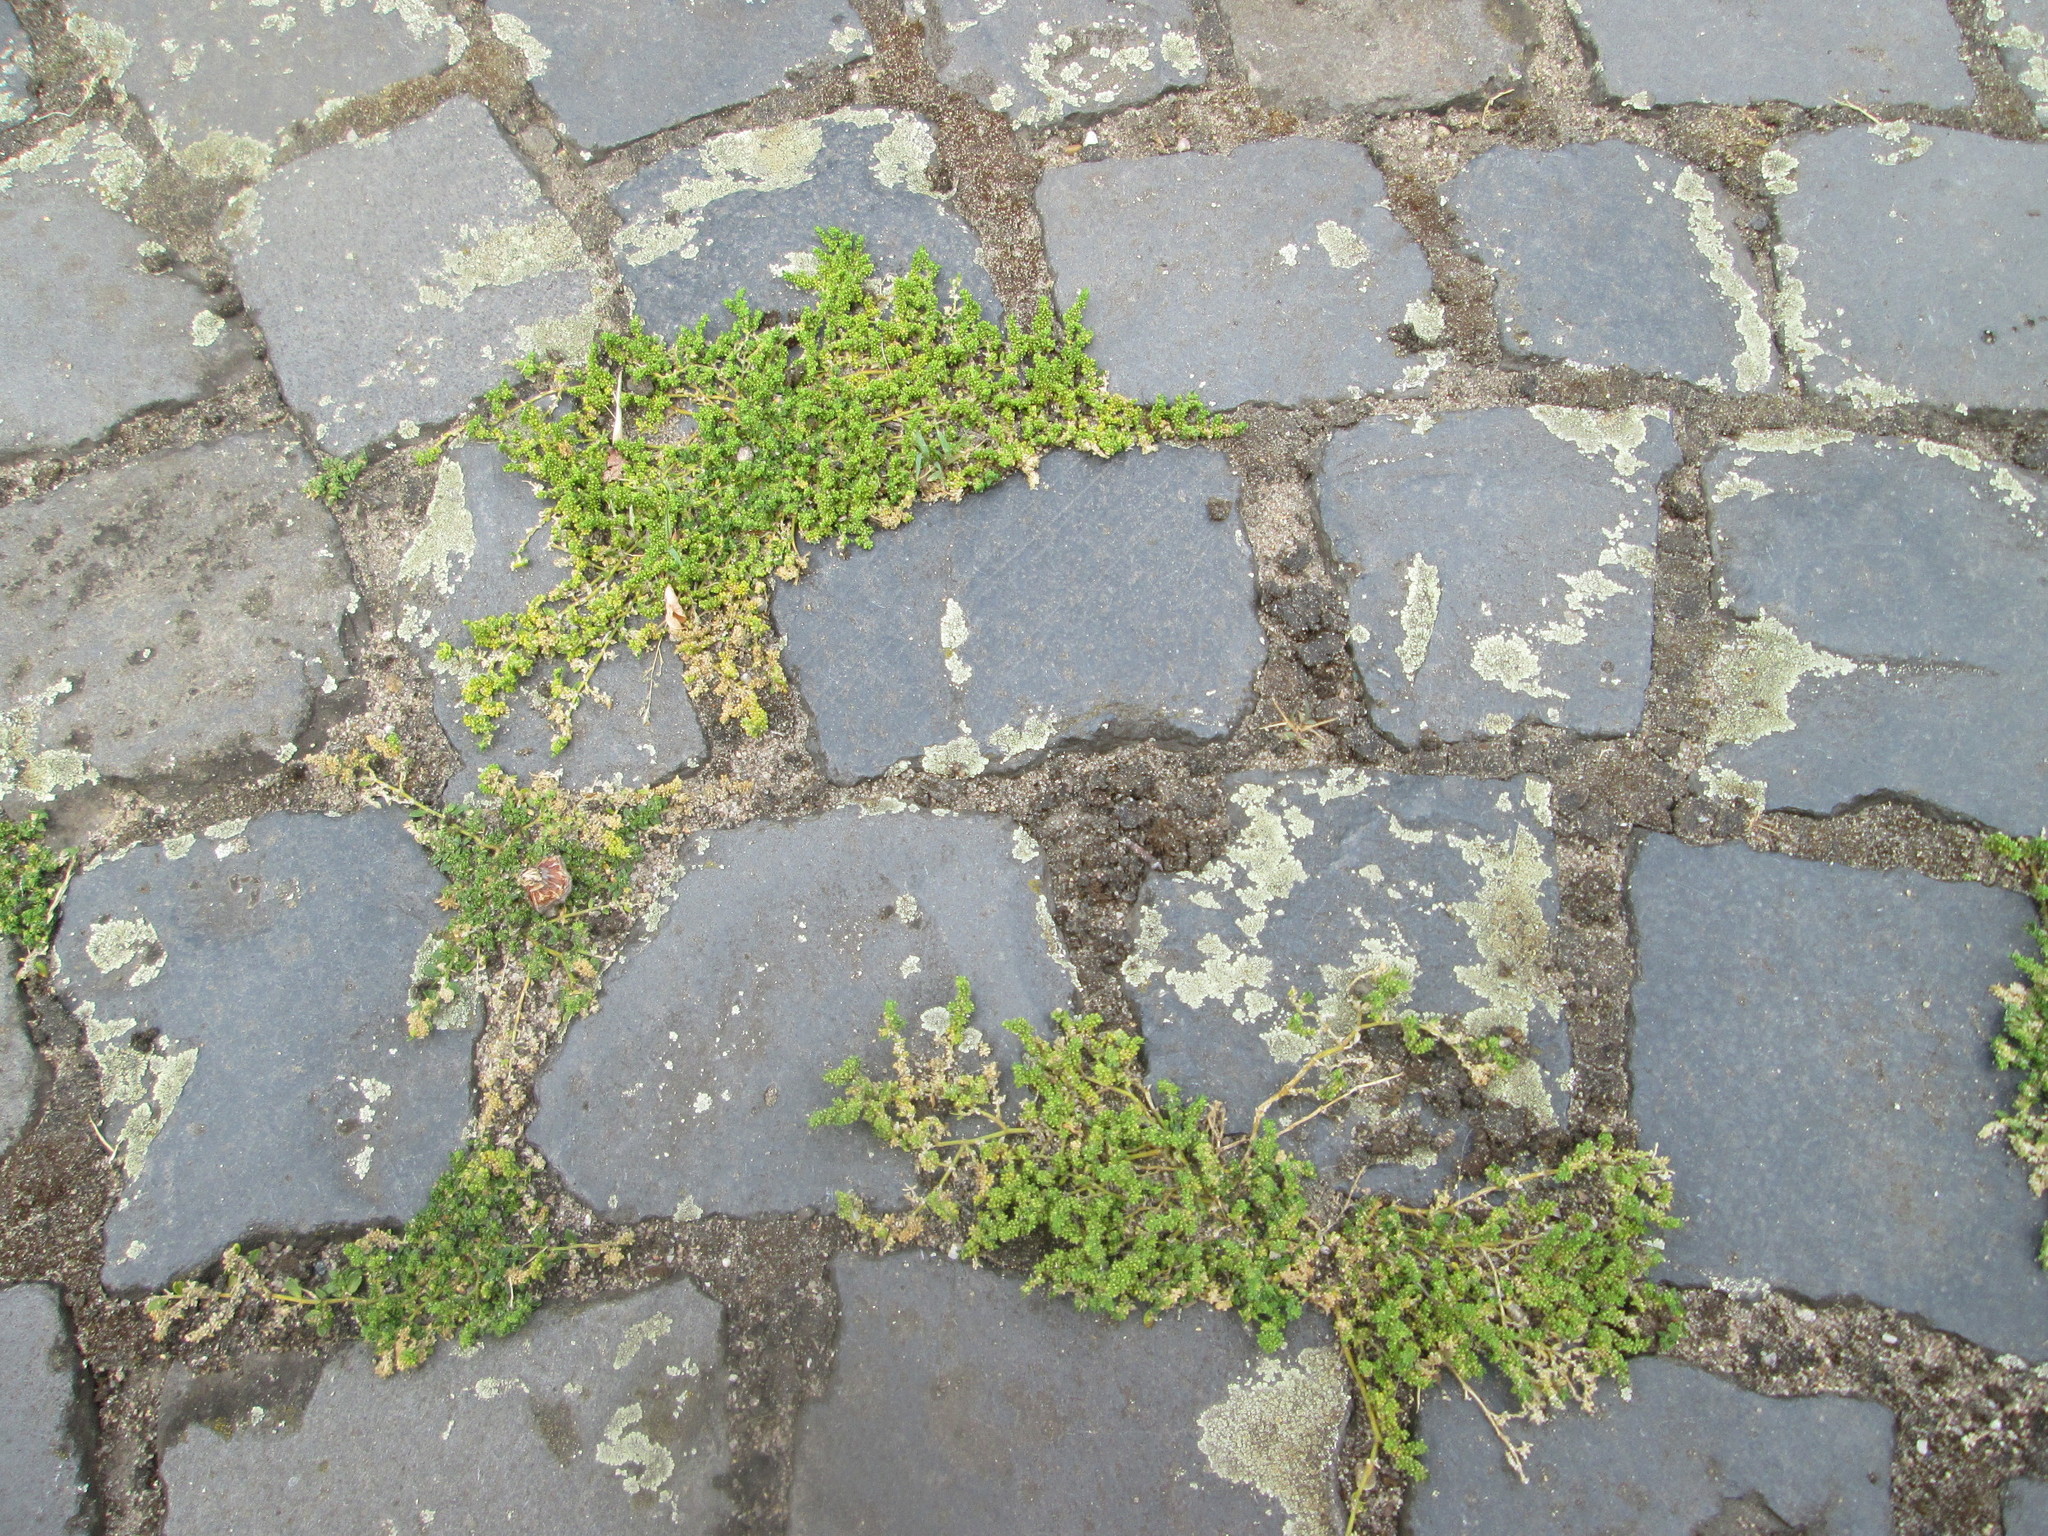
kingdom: Plantae
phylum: Tracheophyta
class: Magnoliopsida
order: Caryophyllales
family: Caryophyllaceae
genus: Herniaria
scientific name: Herniaria glabra
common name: Smooth rupturewort
